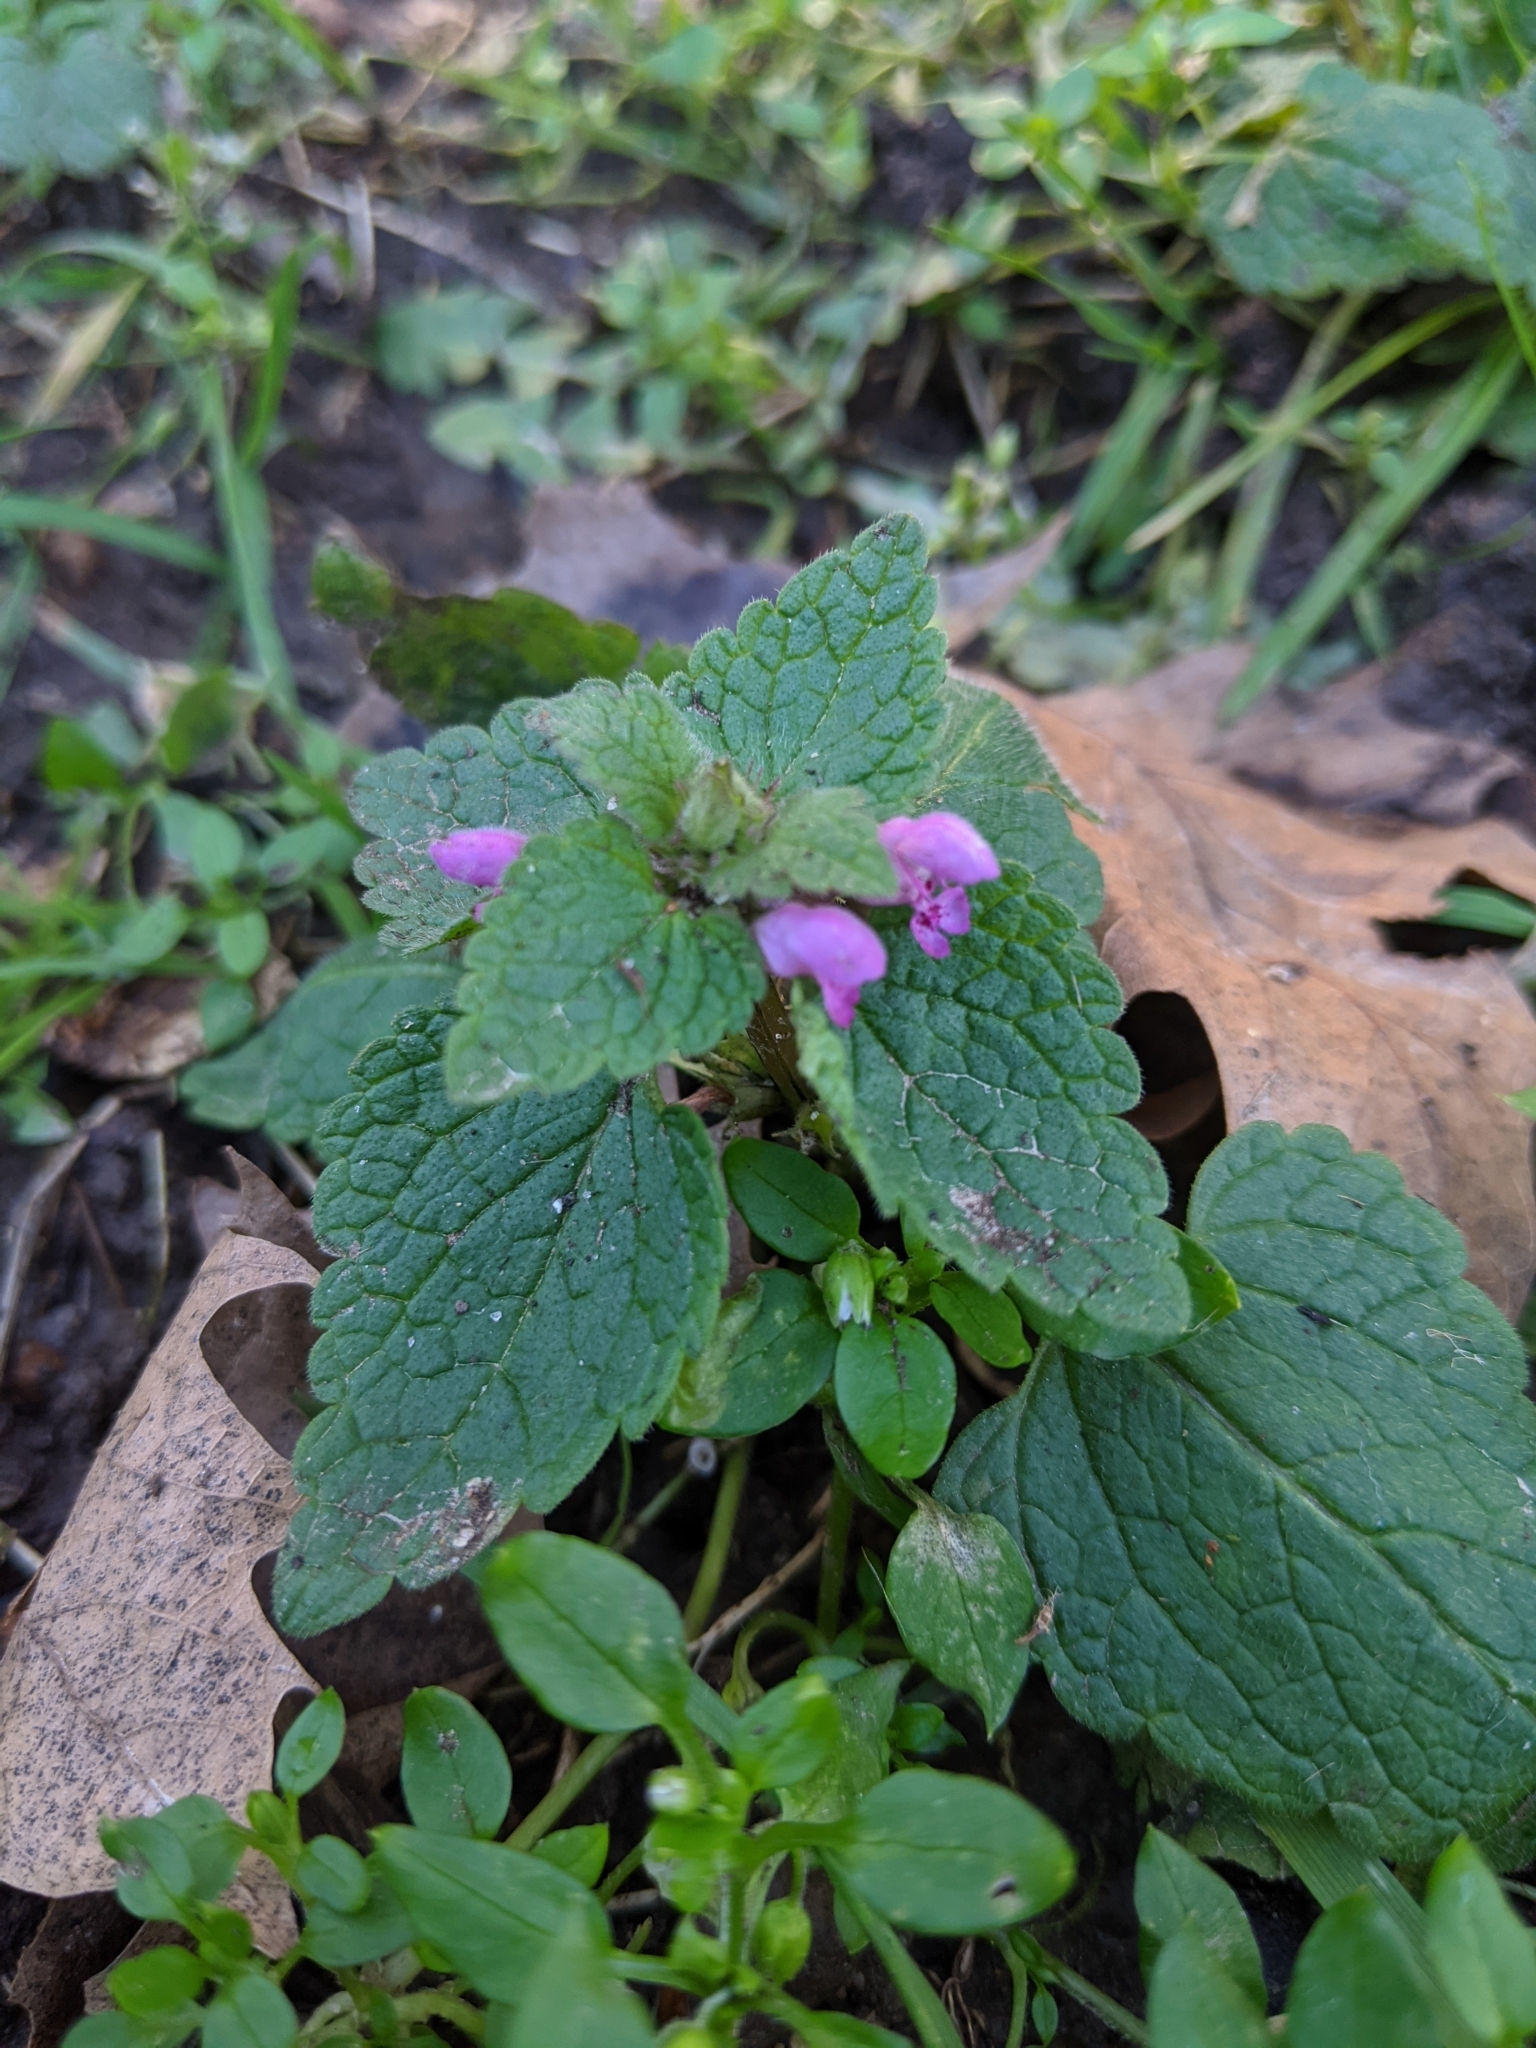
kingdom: Plantae
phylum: Tracheophyta
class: Magnoliopsida
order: Lamiales
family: Lamiaceae
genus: Lamium
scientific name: Lamium purpureum
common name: Red dead-nettle
